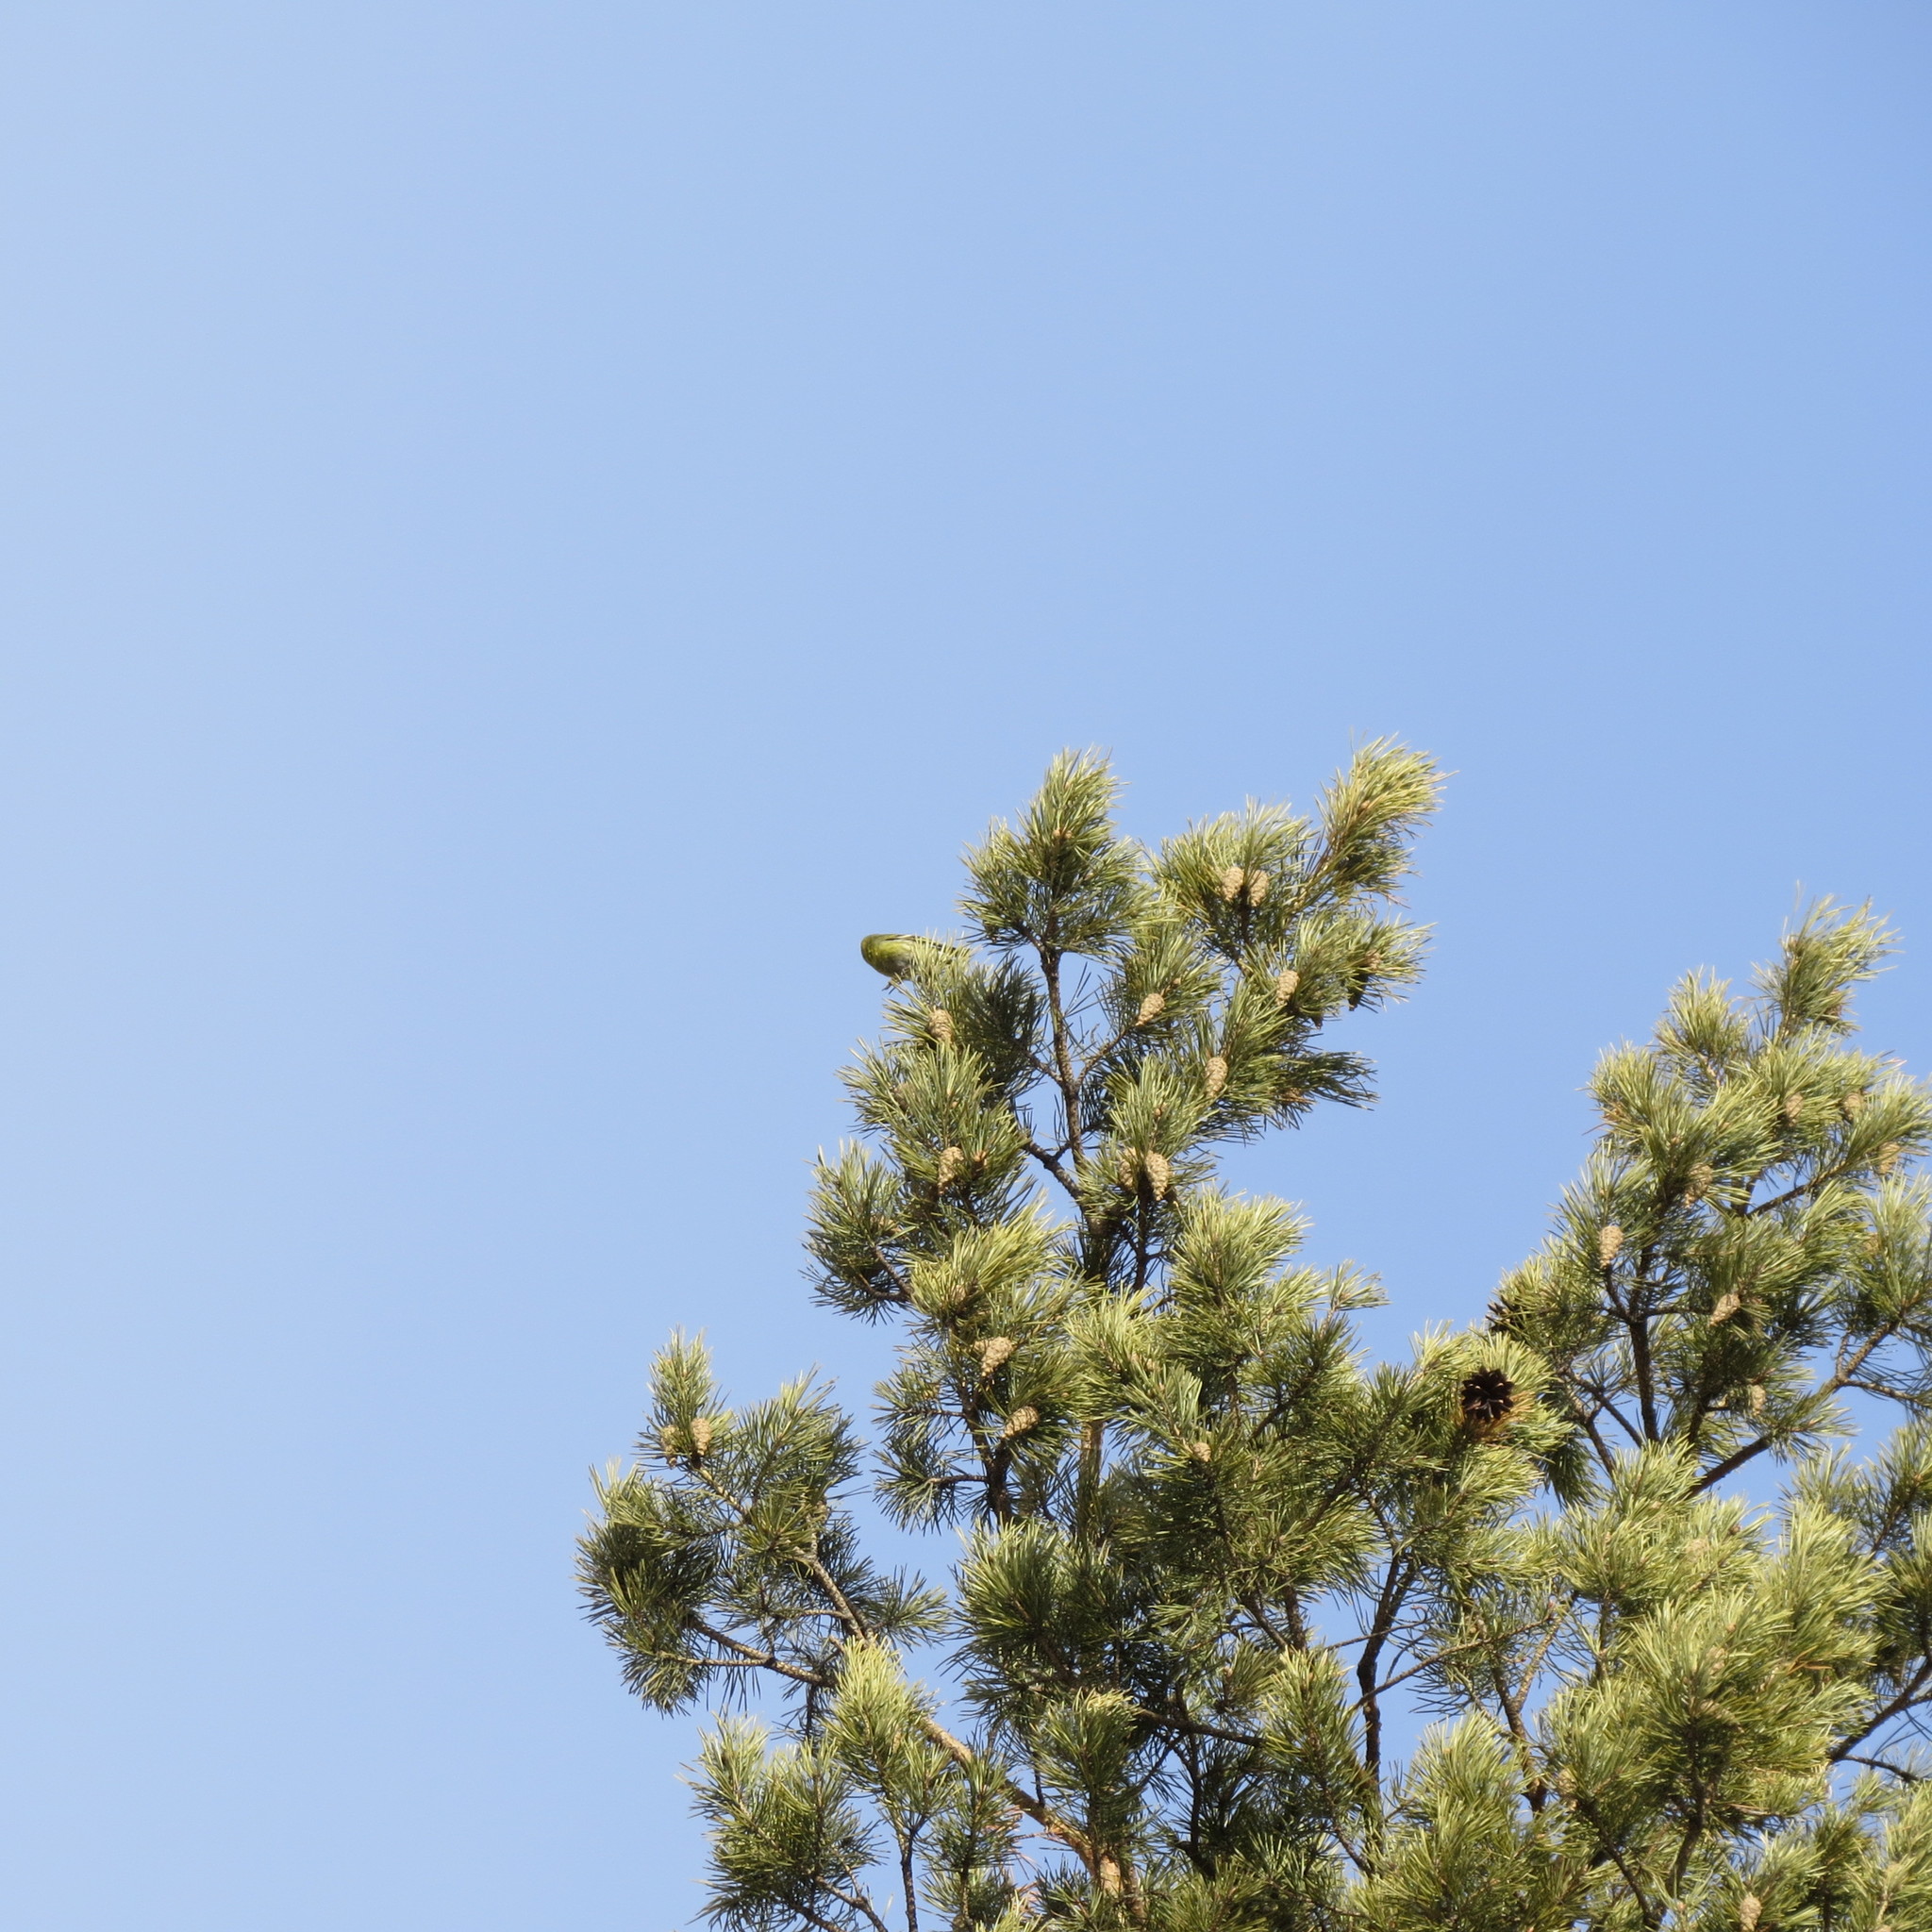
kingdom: Animalia
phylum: Chordata
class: Aves
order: Passeriformes
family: Fringillidae
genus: Spinus
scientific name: Spinus spinus
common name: Eurasian siskin
